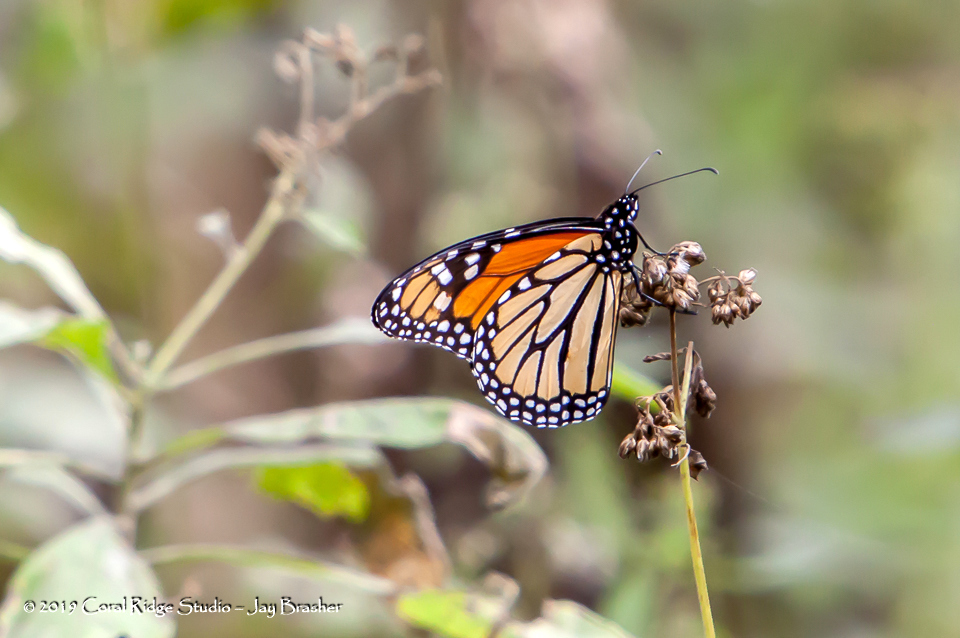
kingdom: Animalia
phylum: Arthropoda
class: Insecta
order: Lepidoptera
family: Nymphalidae
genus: Danaus
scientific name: Danaus plexippus
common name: Monarch
